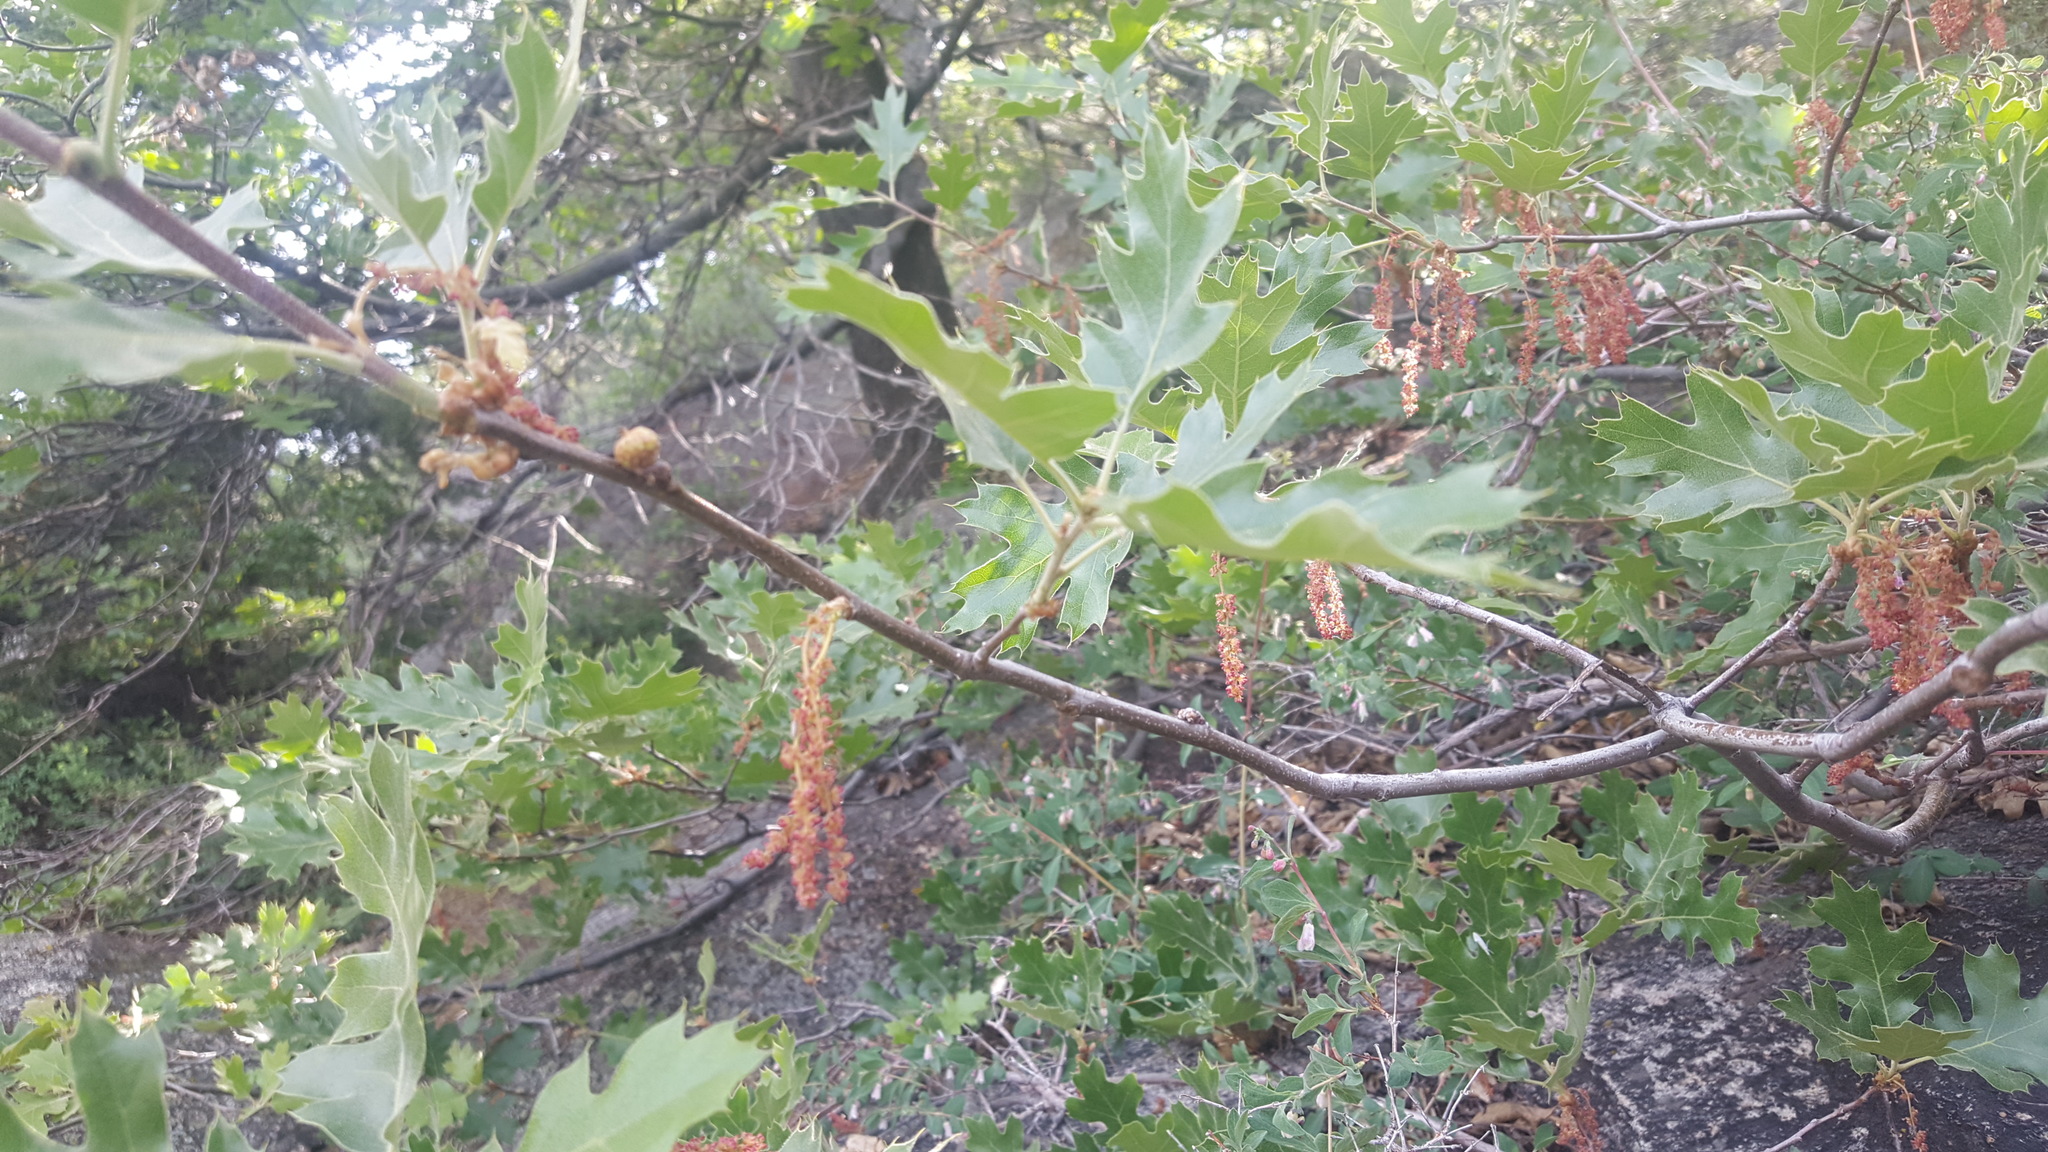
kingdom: Plantae
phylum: Tracheophyta
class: Magnoliopsida
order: Fagales
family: Fagaceae
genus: Quercus
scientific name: Quercus kelloggii
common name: California black oak
